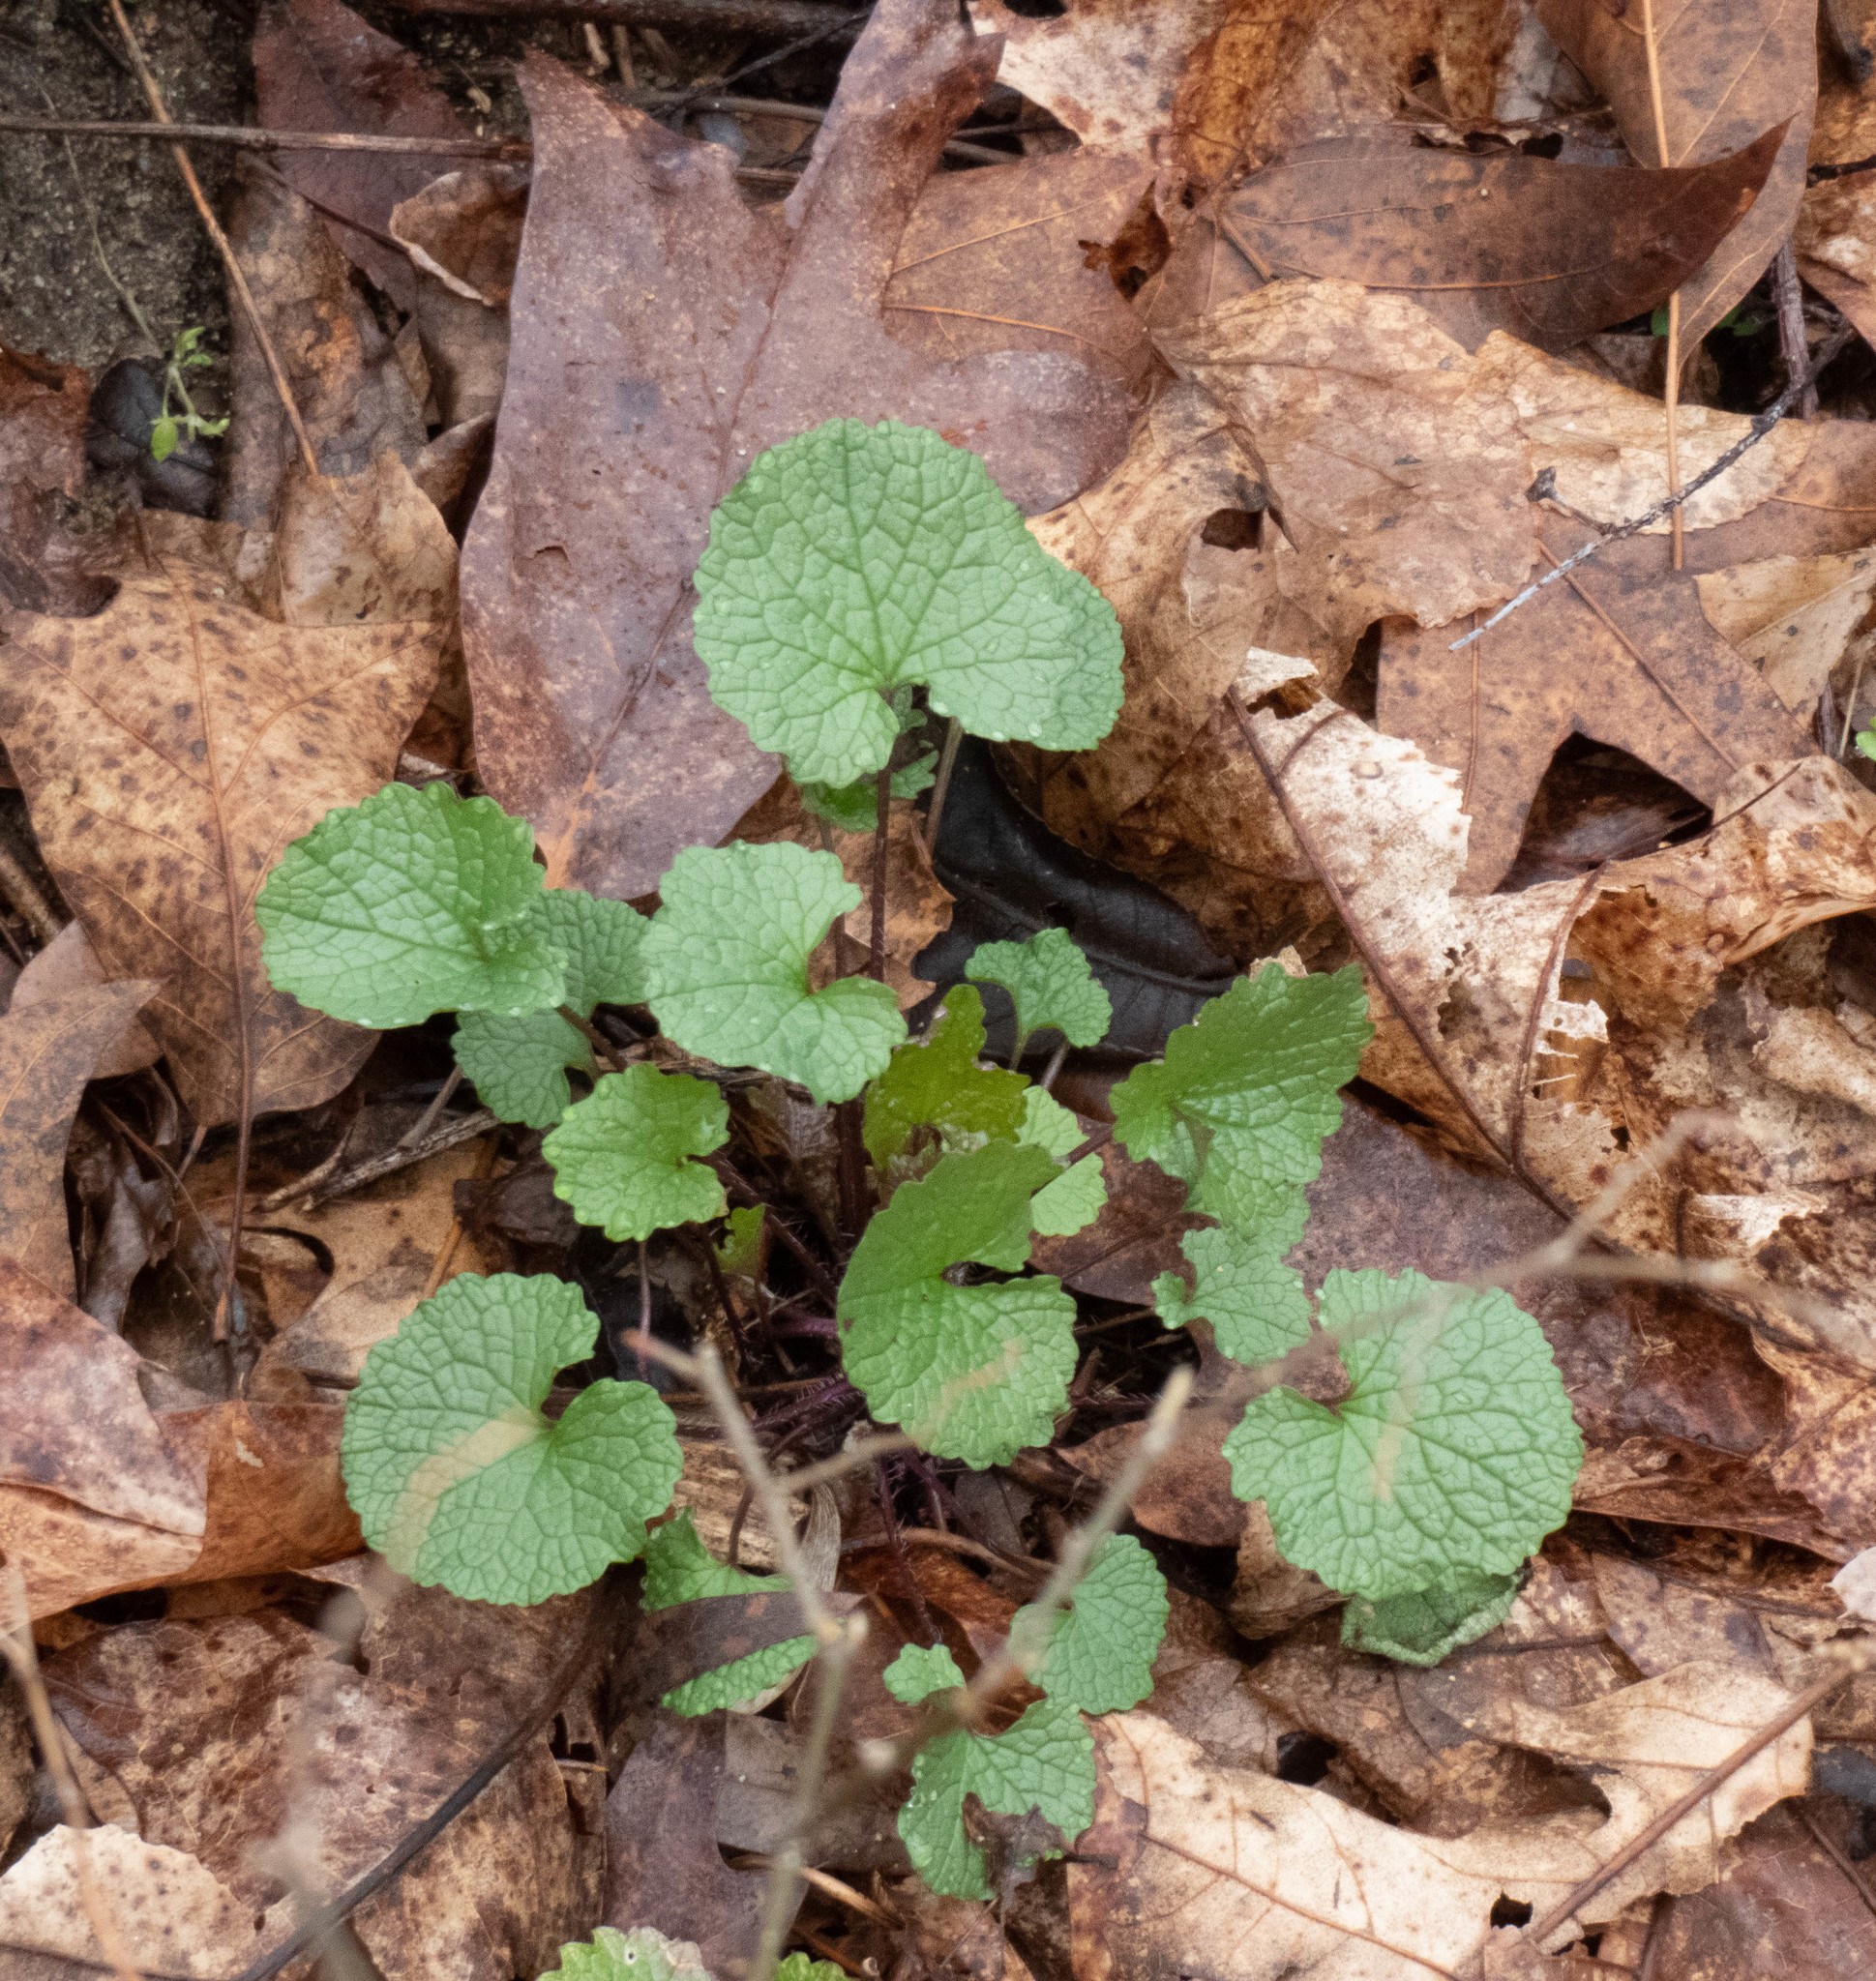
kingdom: Plantae
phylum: Tracheophyta
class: Magnoliopsida
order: Brassicales
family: Brassicaceae
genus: Alliaria
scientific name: Alliaria petiolata
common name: Garlic mustard
